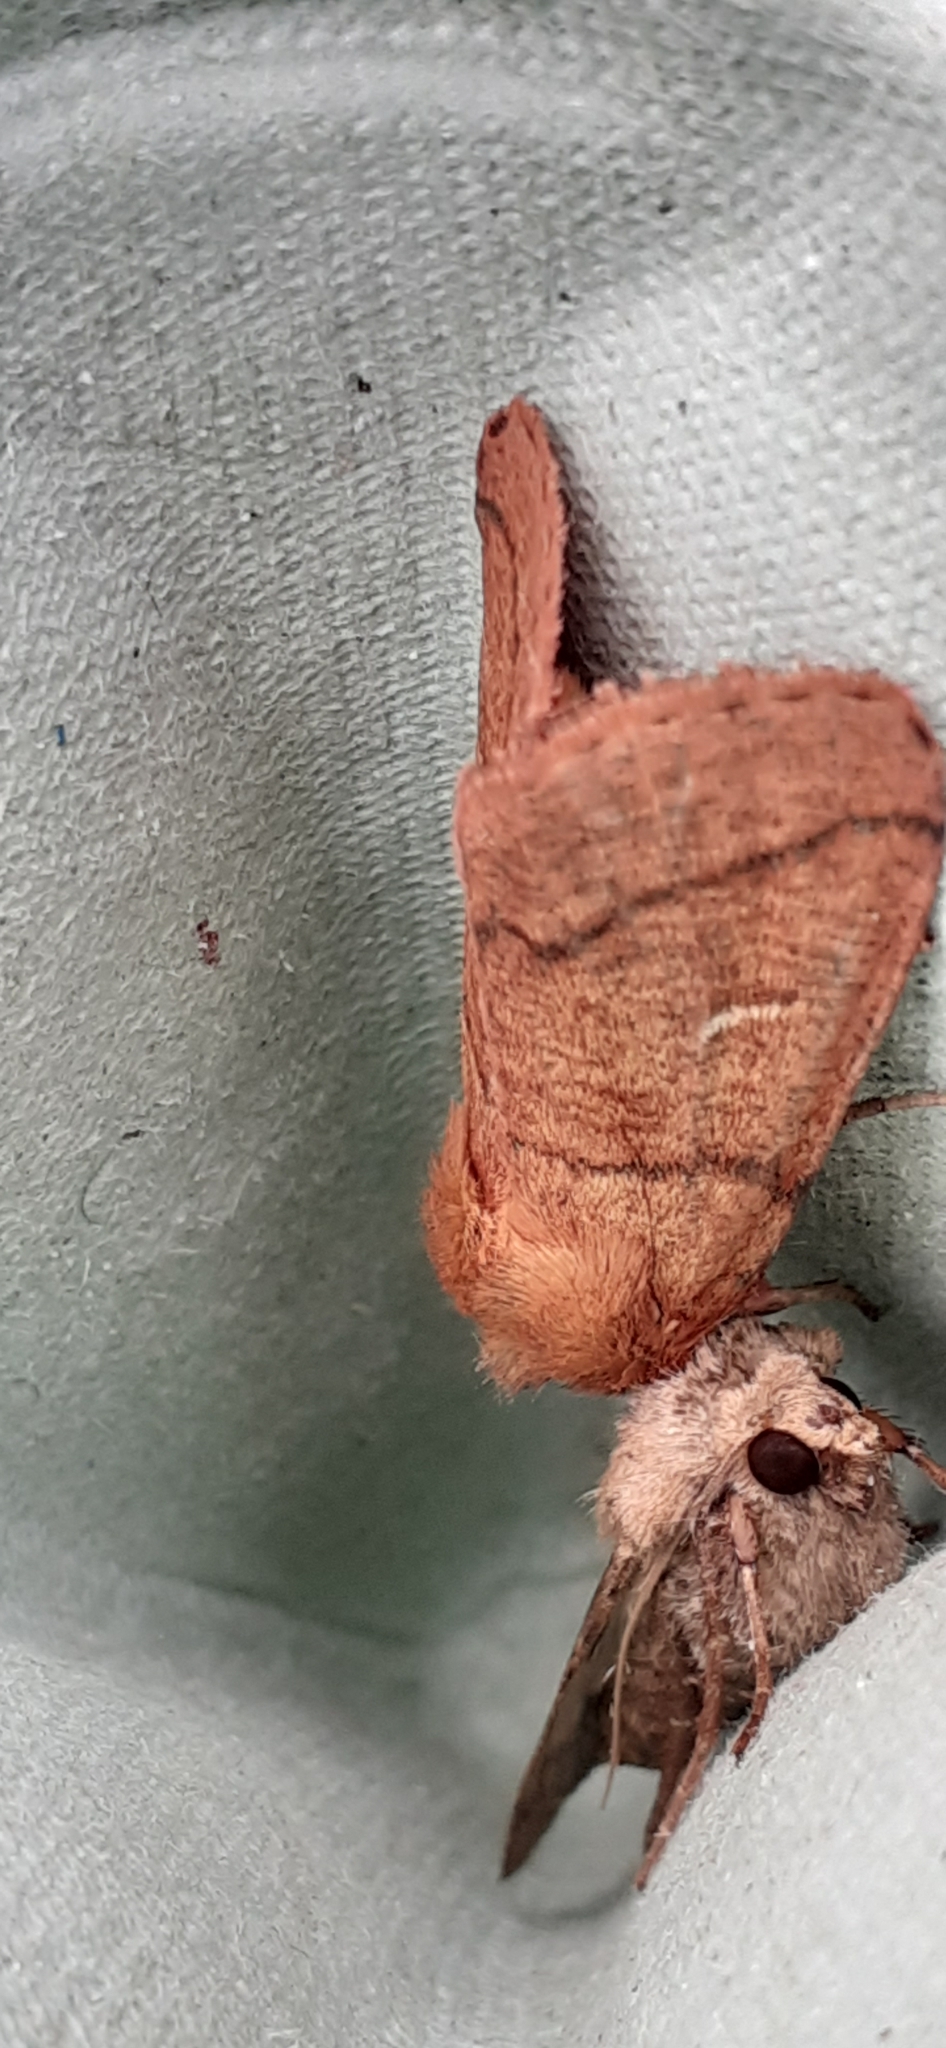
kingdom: Animalia
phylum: Arthropoda
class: Insecta
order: Lepidoptera
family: Noctuidae
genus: Mythimna
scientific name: Mythimna turca
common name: Double line
